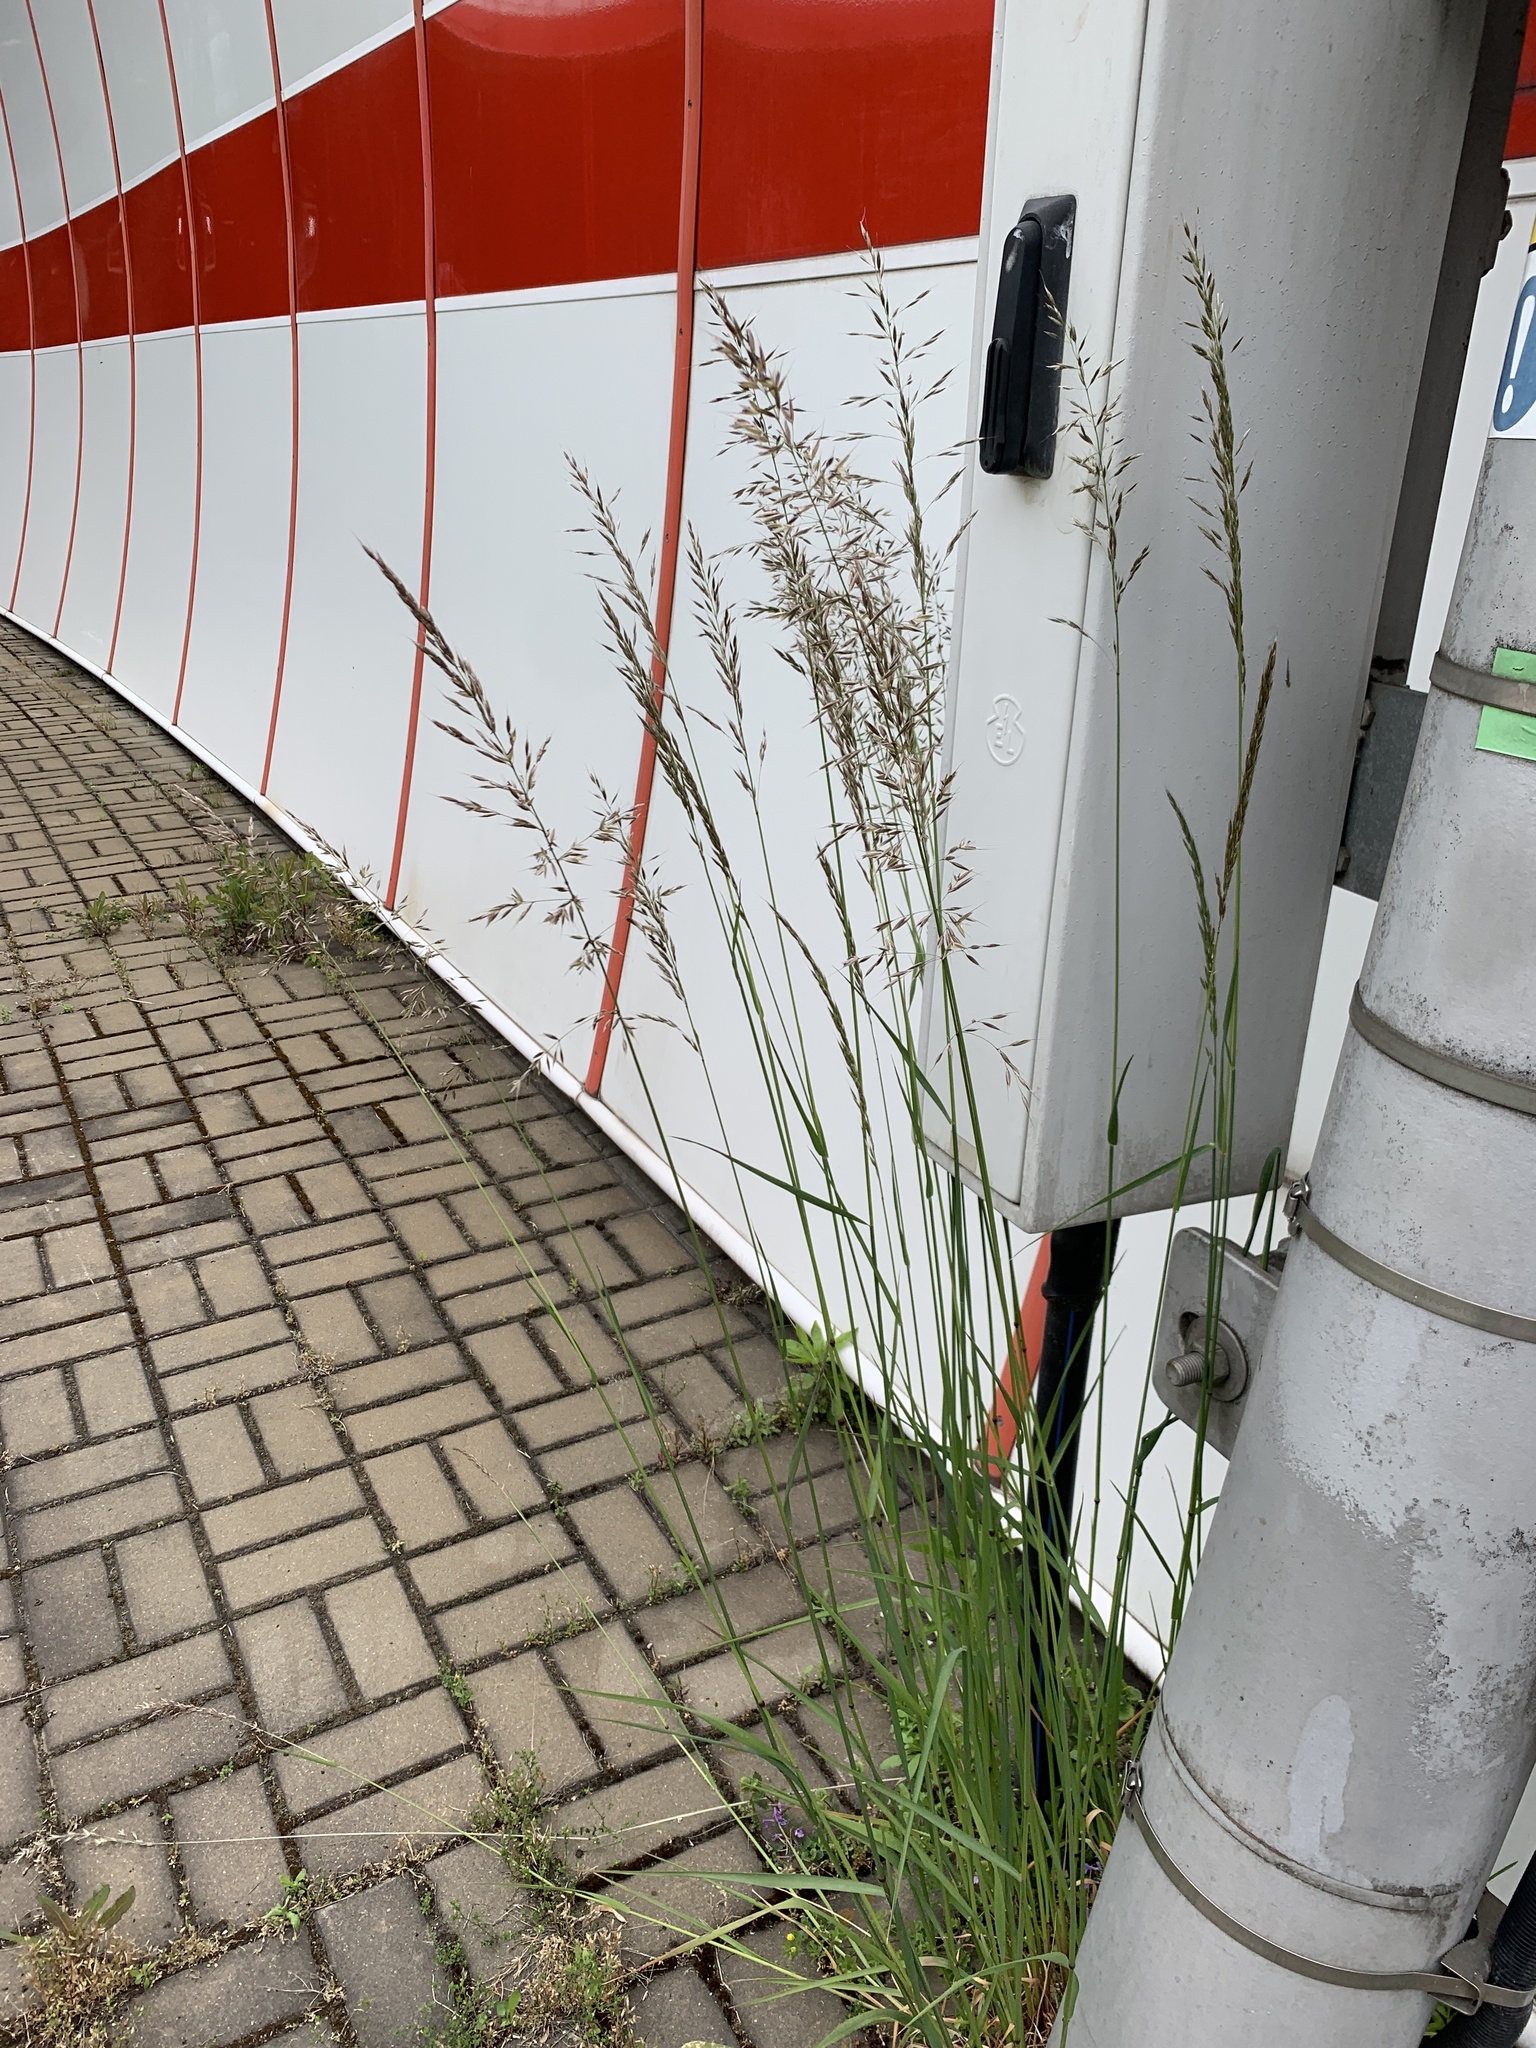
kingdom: Plantae
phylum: Tracheophyta
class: Liliopsida
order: Poales
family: Poaceae
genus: Arrhenatherum
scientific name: Arrhenatherum elatius
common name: Tall oatgrass
